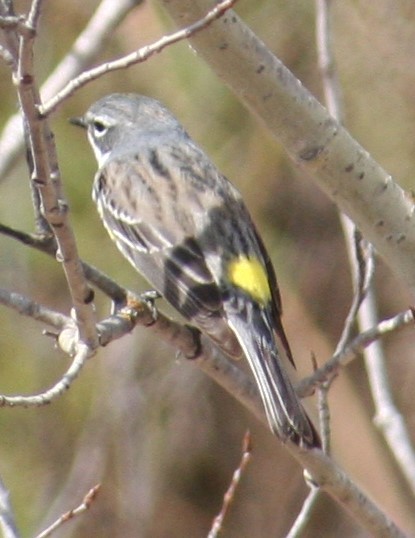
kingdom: Animalia
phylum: Chordata
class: Aves
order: Passeriformes
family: Parulidae
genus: Setophaga
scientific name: Setophaga coronata
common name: Myrtle warbler
